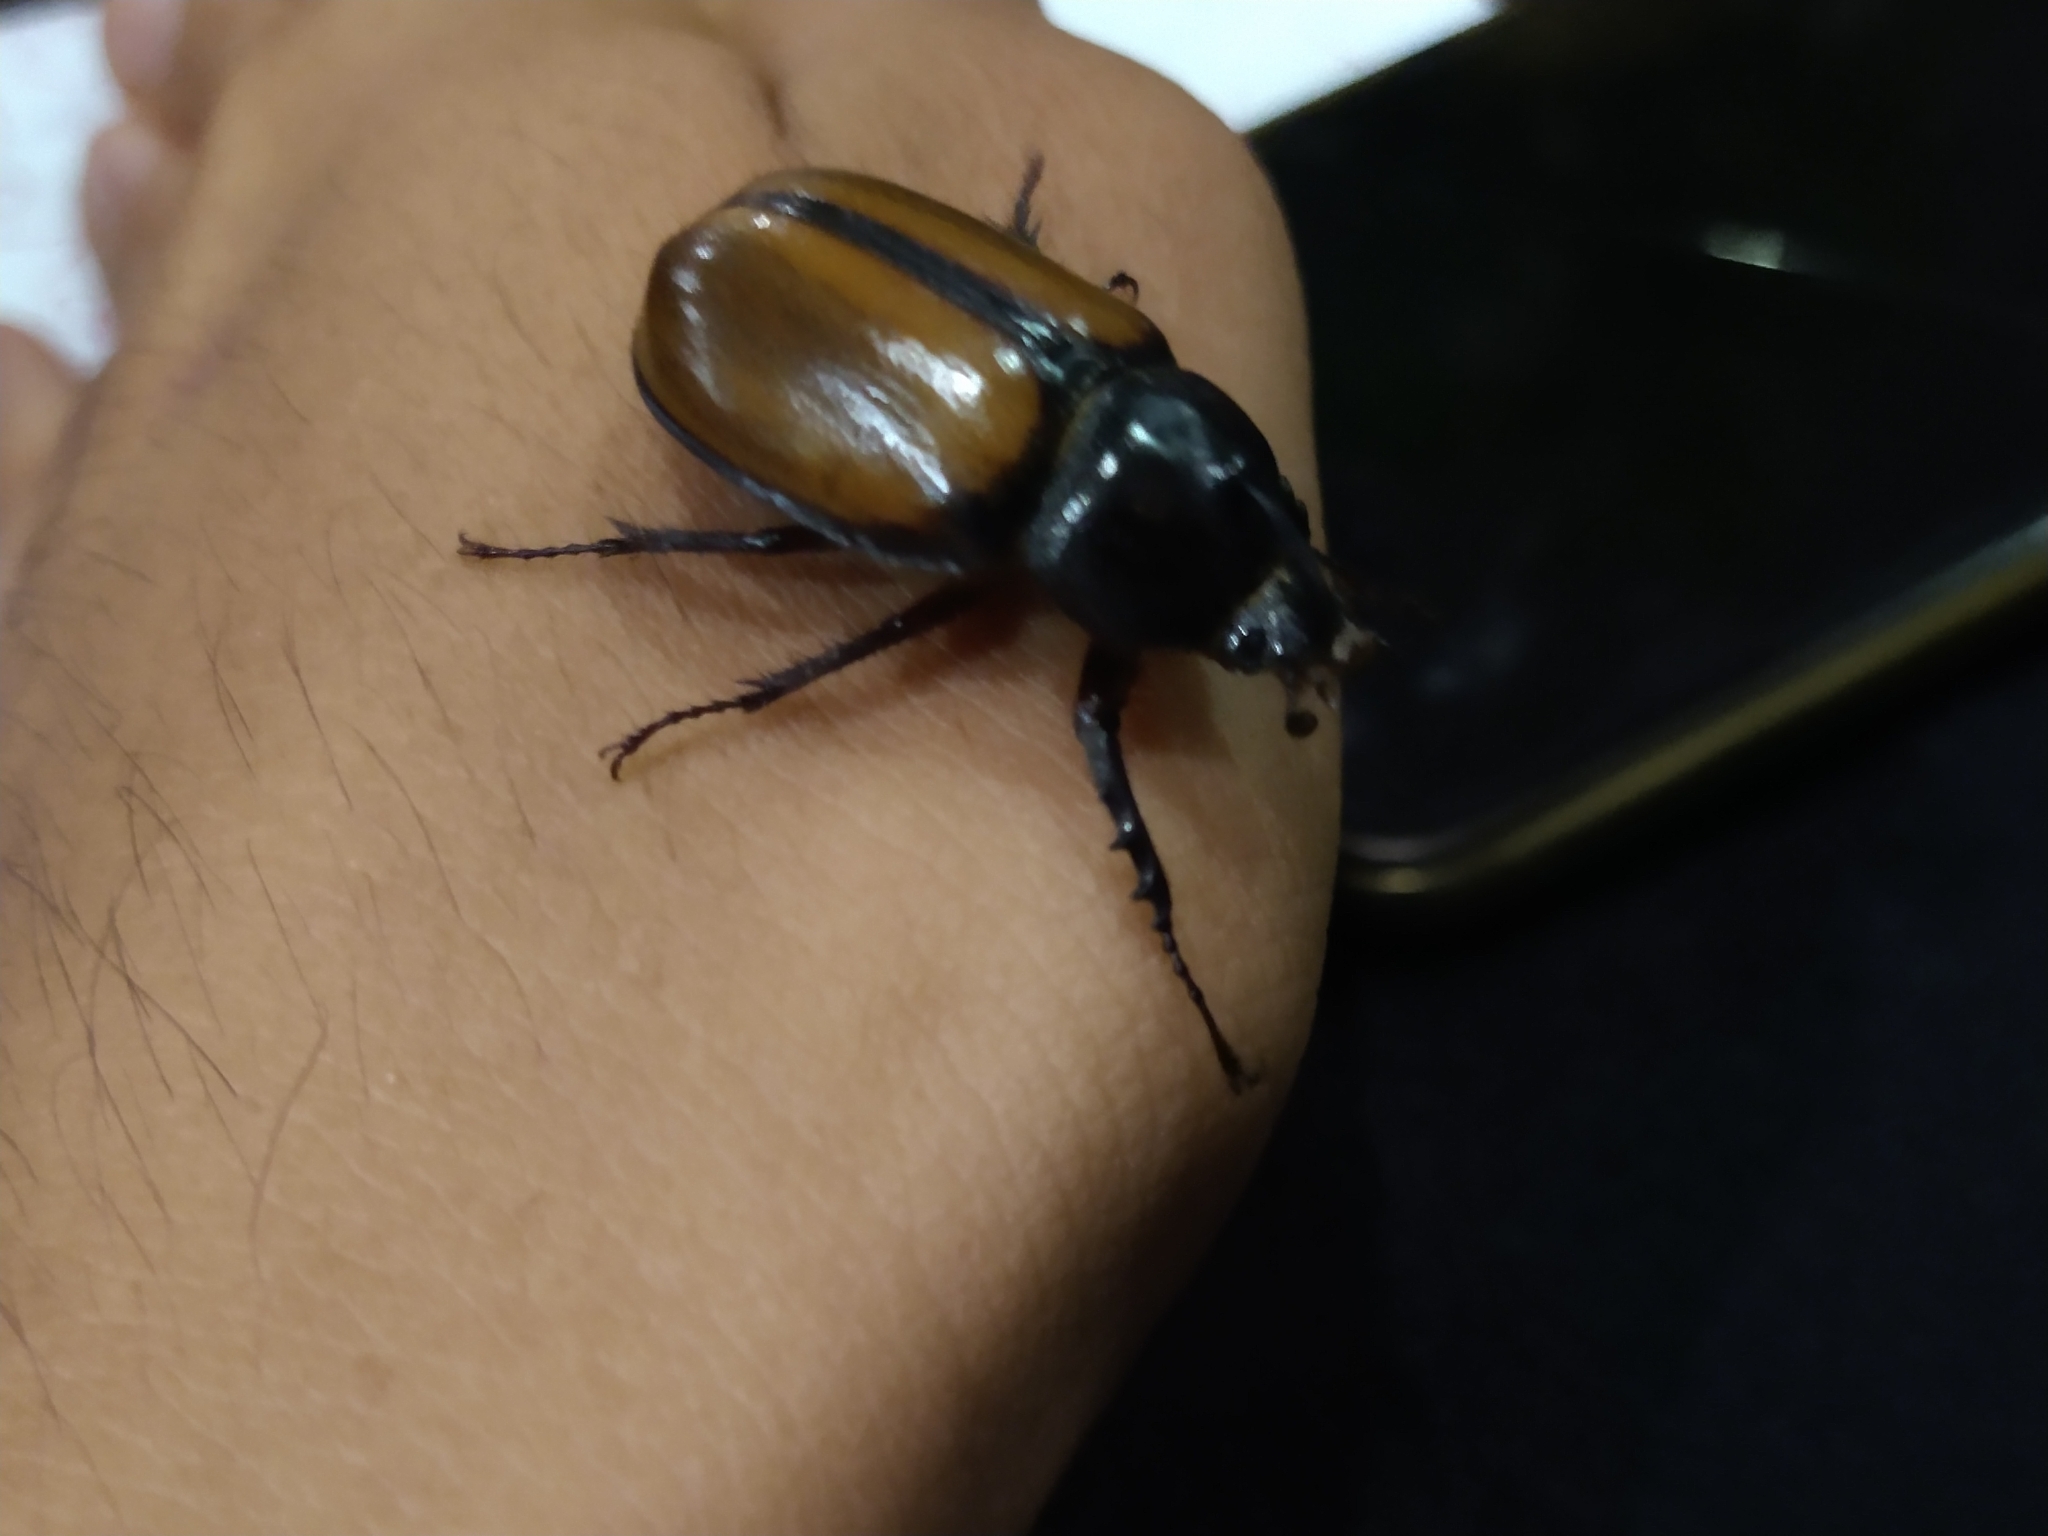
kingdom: Animalia
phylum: Arthropoda
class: Insecta
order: Coleoptera
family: Scarabaeidae
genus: Golofa
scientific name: Golofa pusilla
